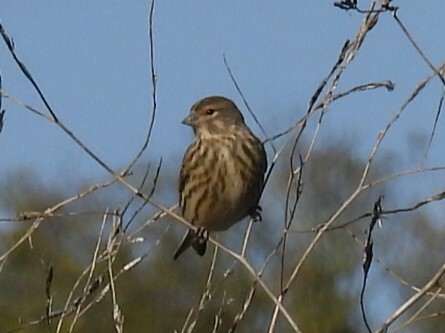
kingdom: Animalia
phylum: Chordata
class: Aves
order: Passeriformes
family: Fringillidae
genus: Linaria
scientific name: Linaria cannabina
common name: Common linnet
